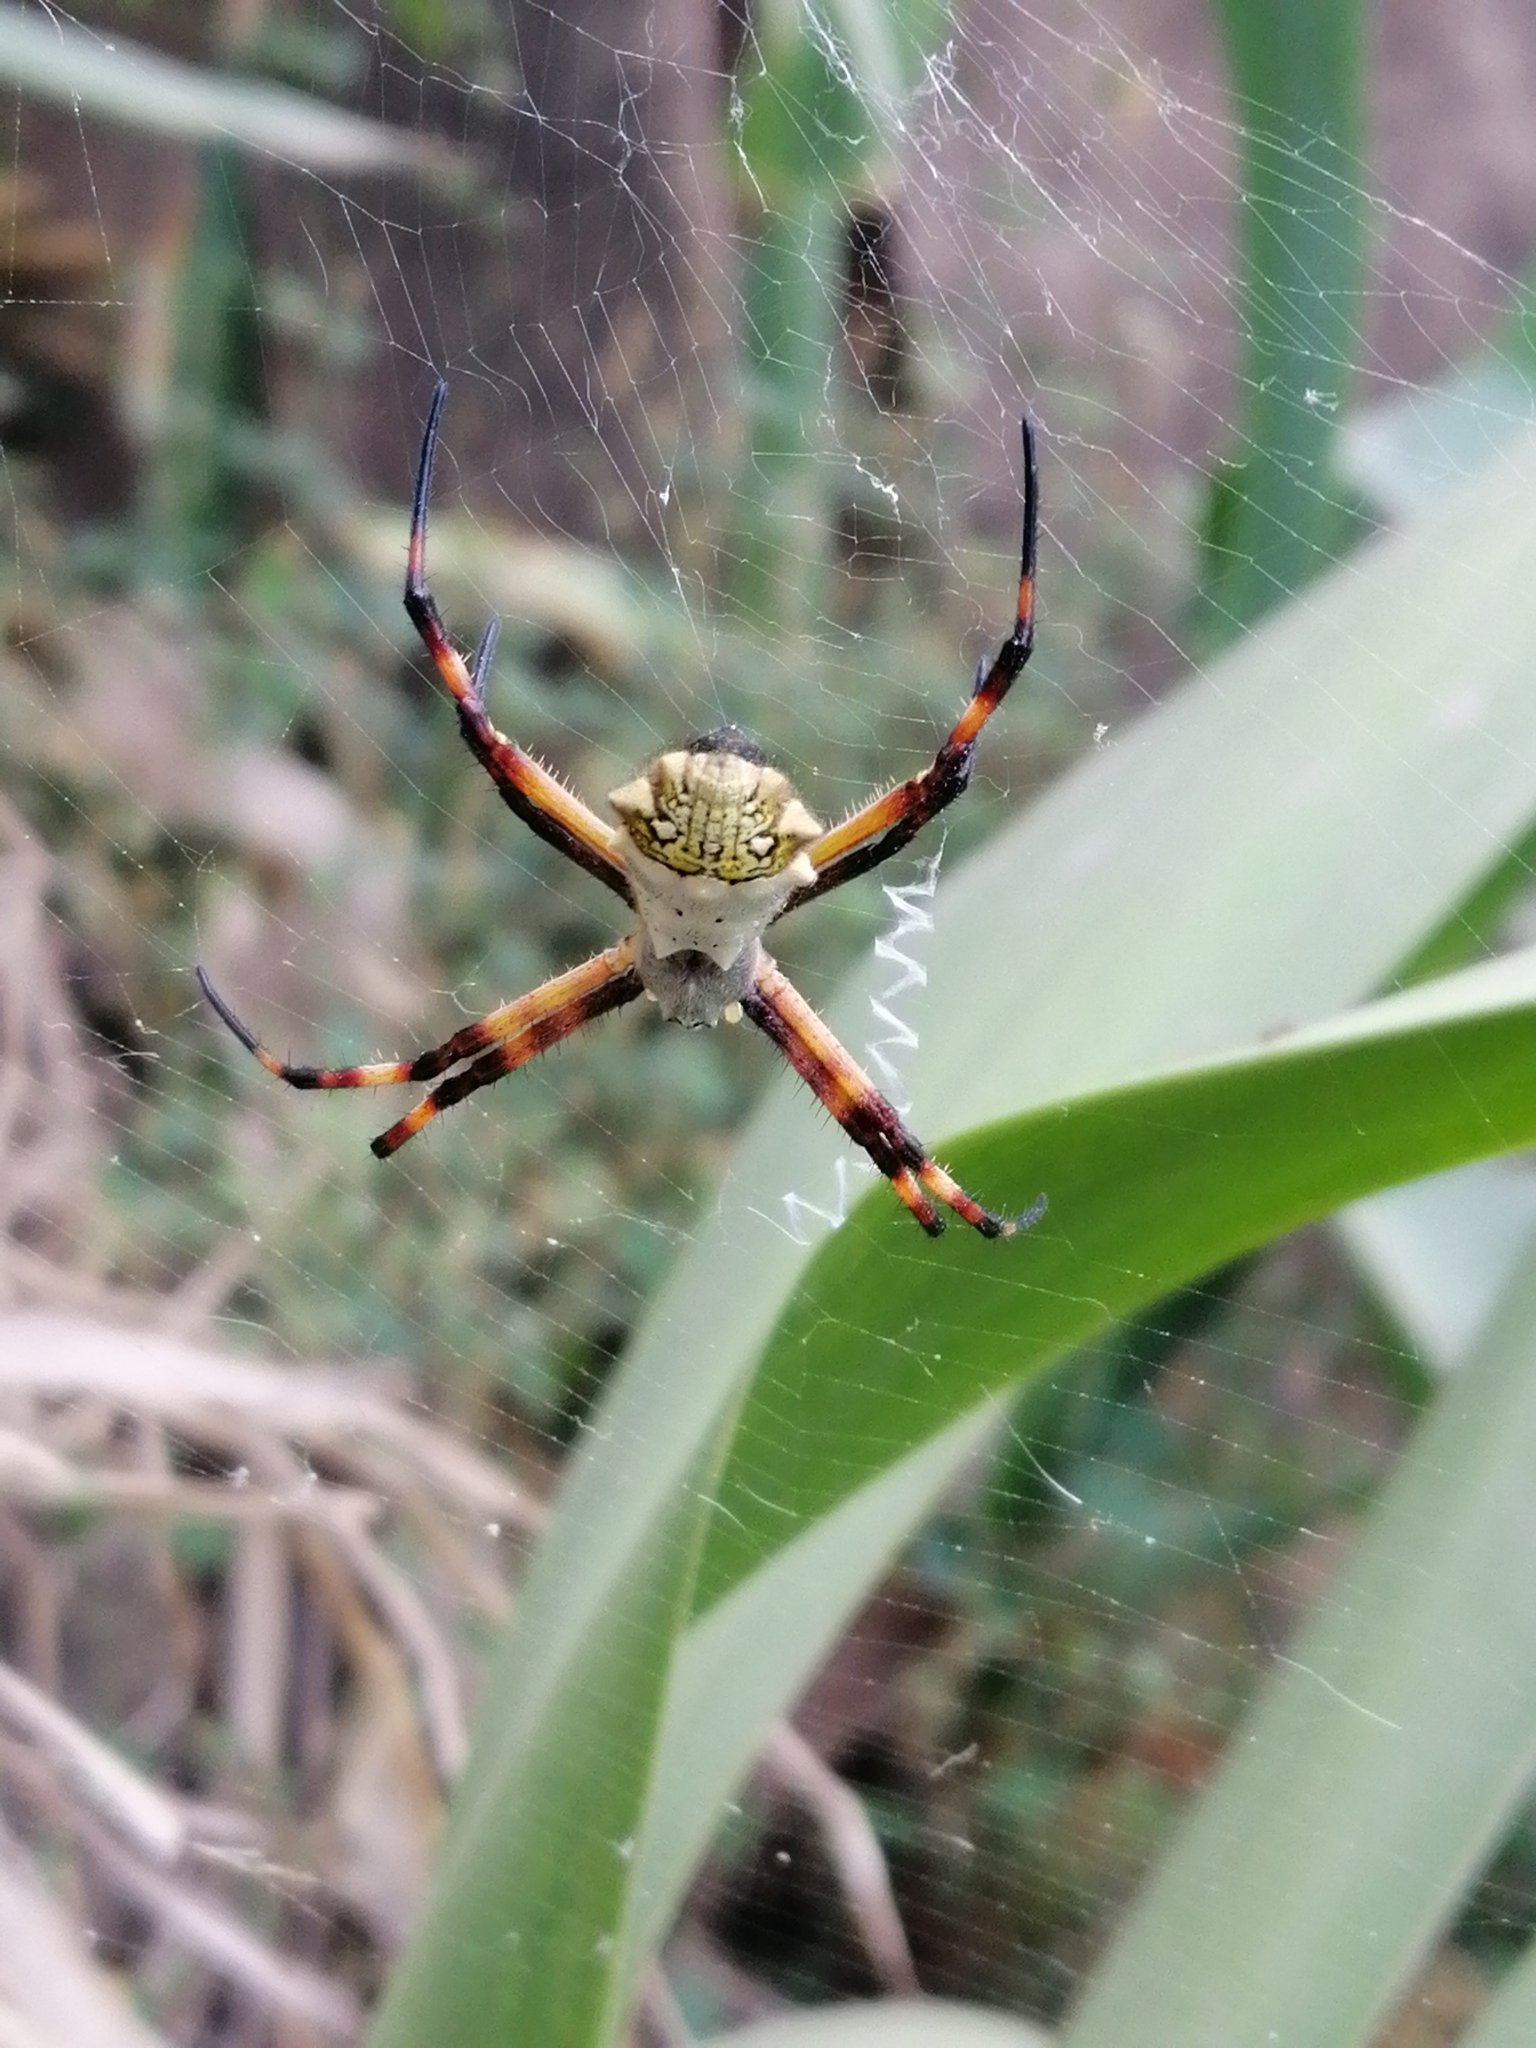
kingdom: Animalia
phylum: Arthropoda
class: Arachnida
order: Araneae
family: Araneidae
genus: Argiope
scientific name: Argiope argentata
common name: Orb weavers
